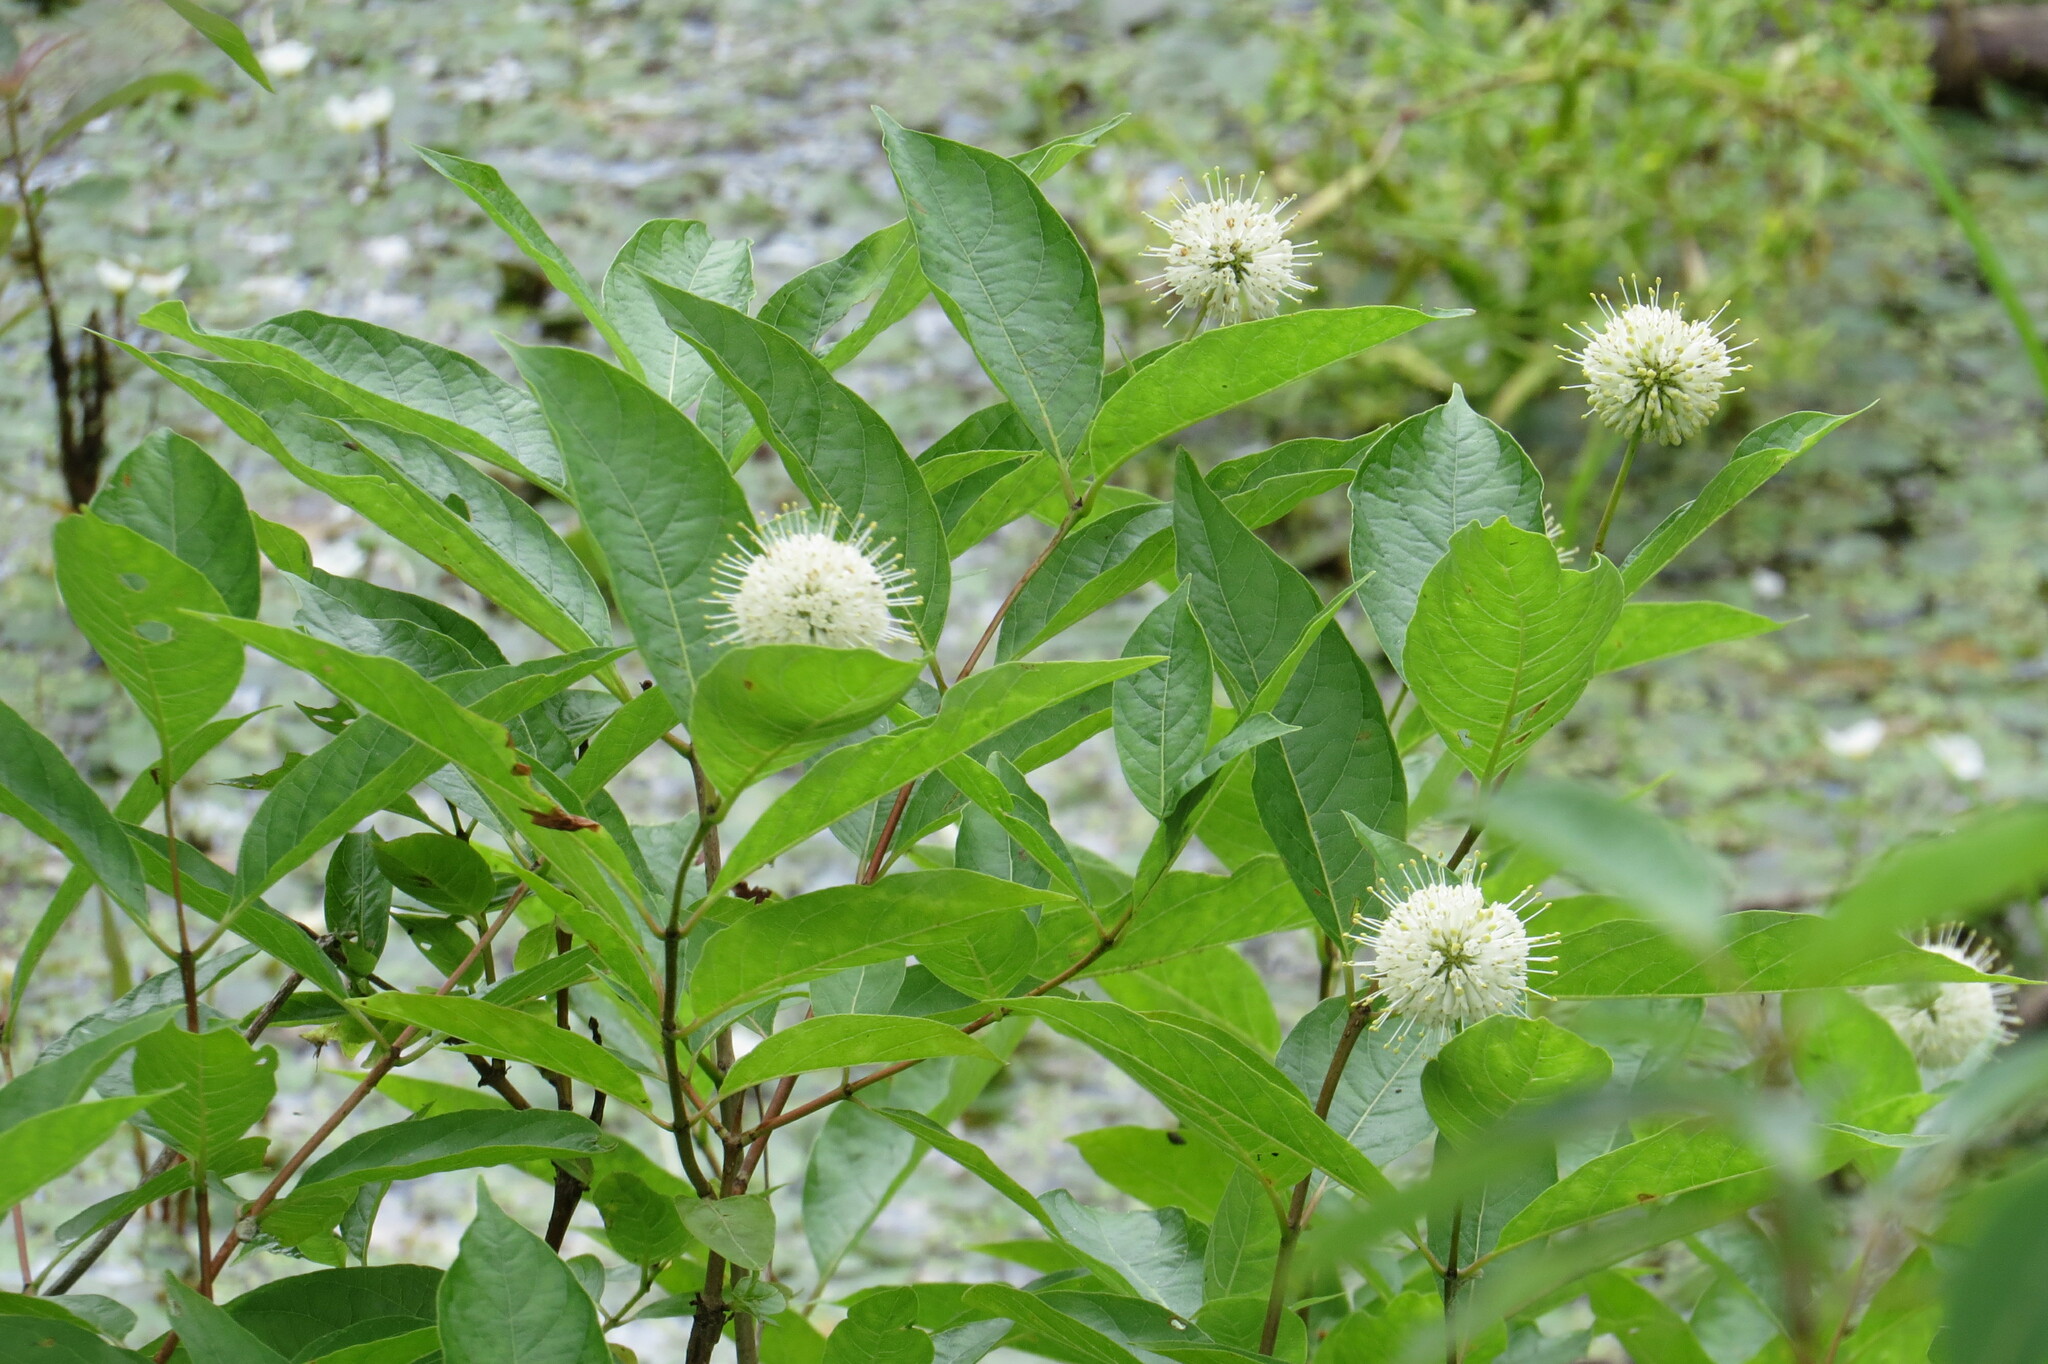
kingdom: Plantae
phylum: Tracheophyta
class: Magnoliopsida
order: Gentianales
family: Rubiaceae
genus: Cephalanthus
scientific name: Cephalanthus occidentalis
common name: Button-willow
